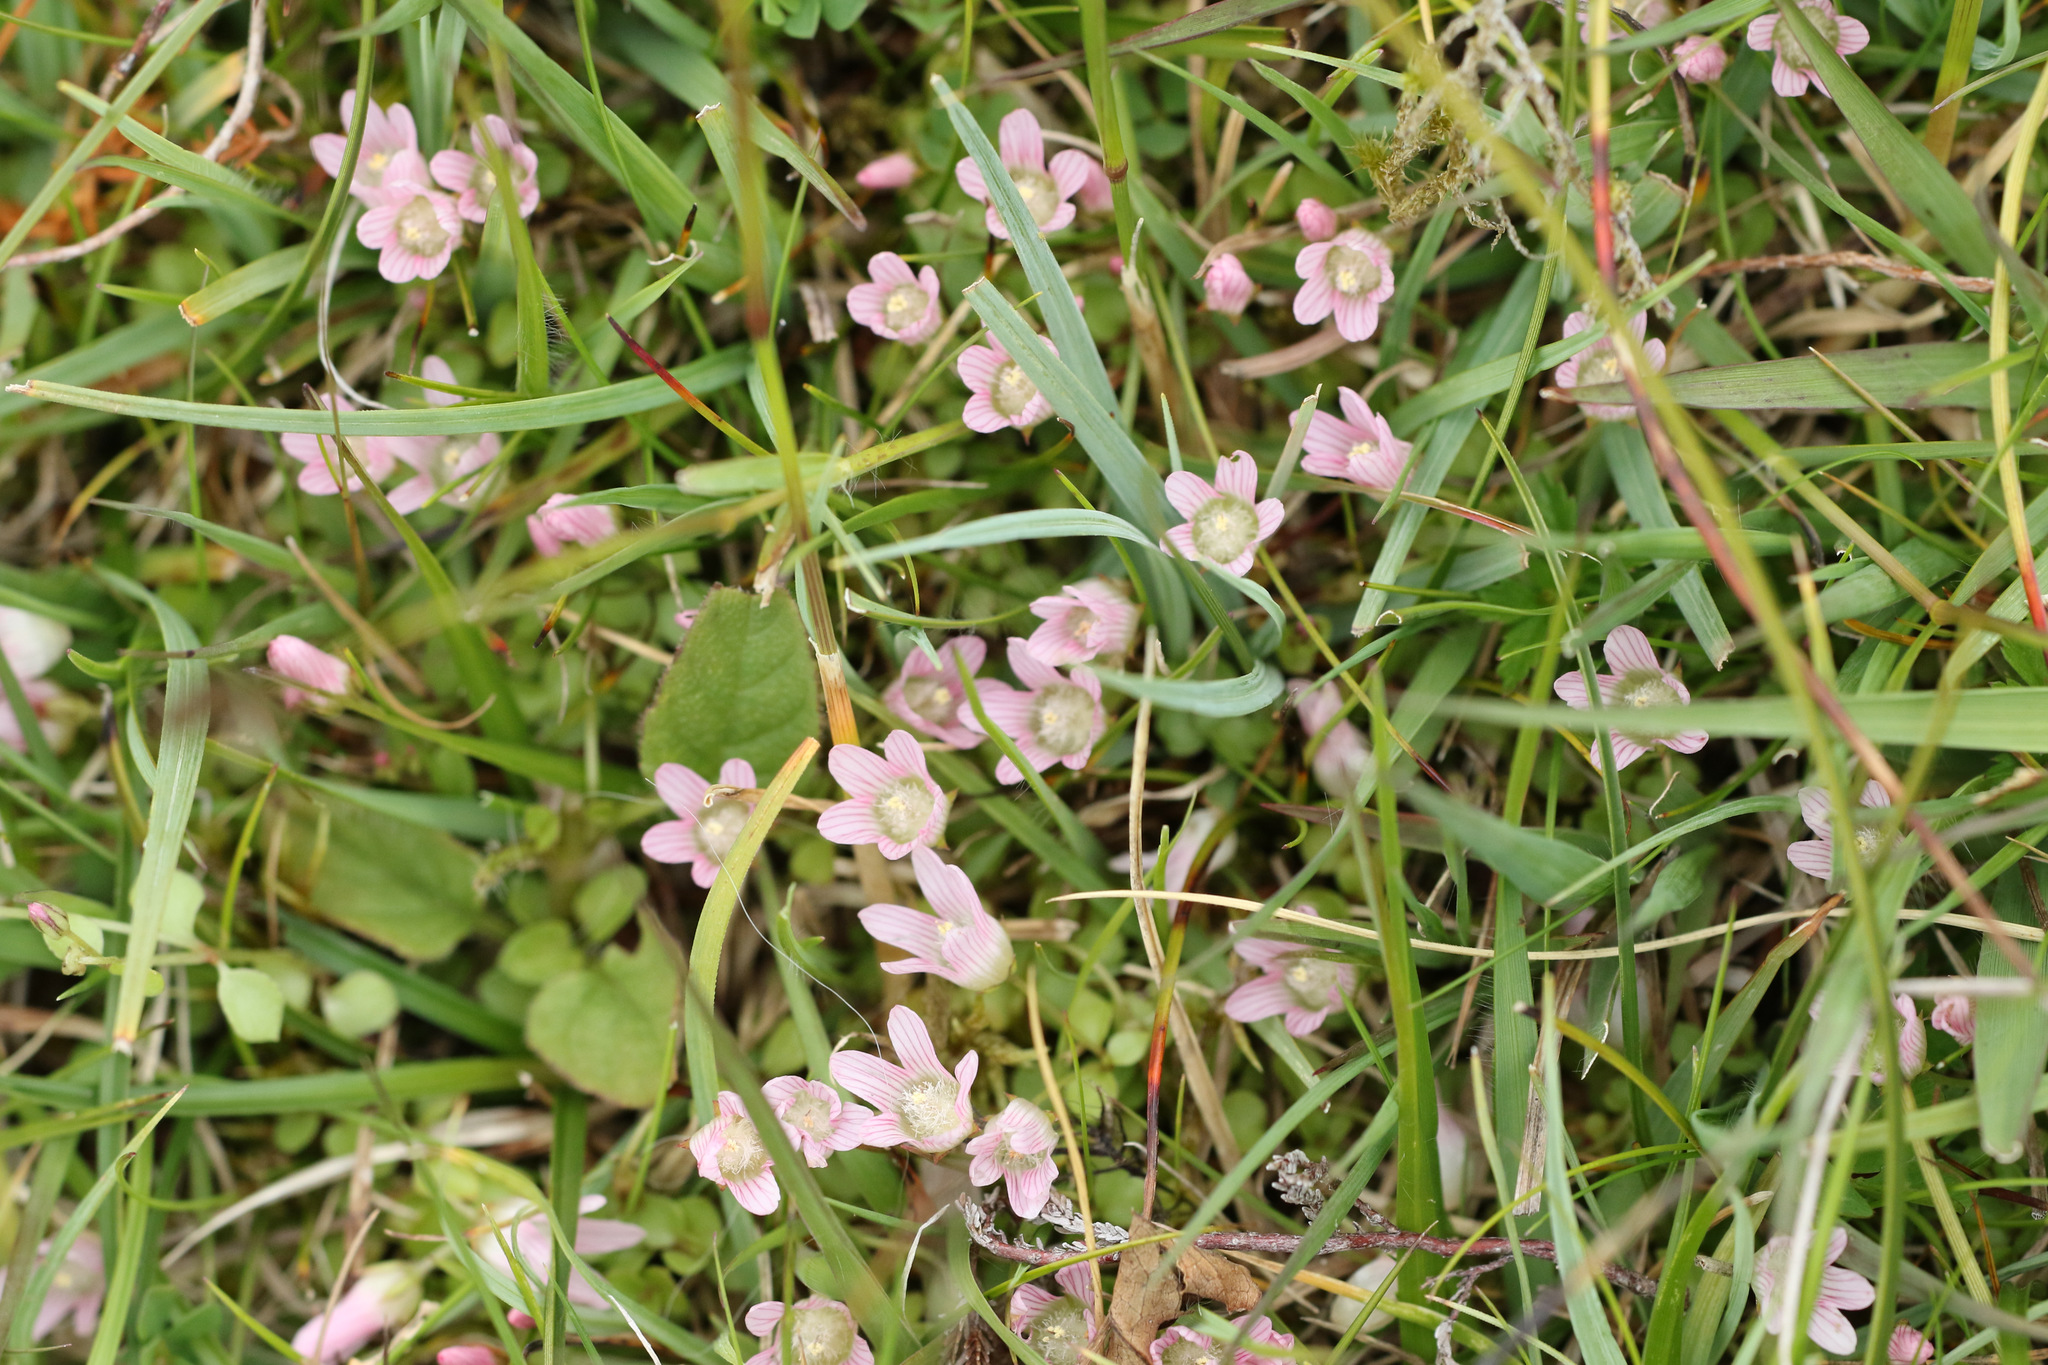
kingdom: Plantae
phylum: Tracheophyta
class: Magnoliopsida
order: Ericales
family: Primulaceae
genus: Lysimachia
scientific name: Lysimachia tenella
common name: European bog pimpernel
